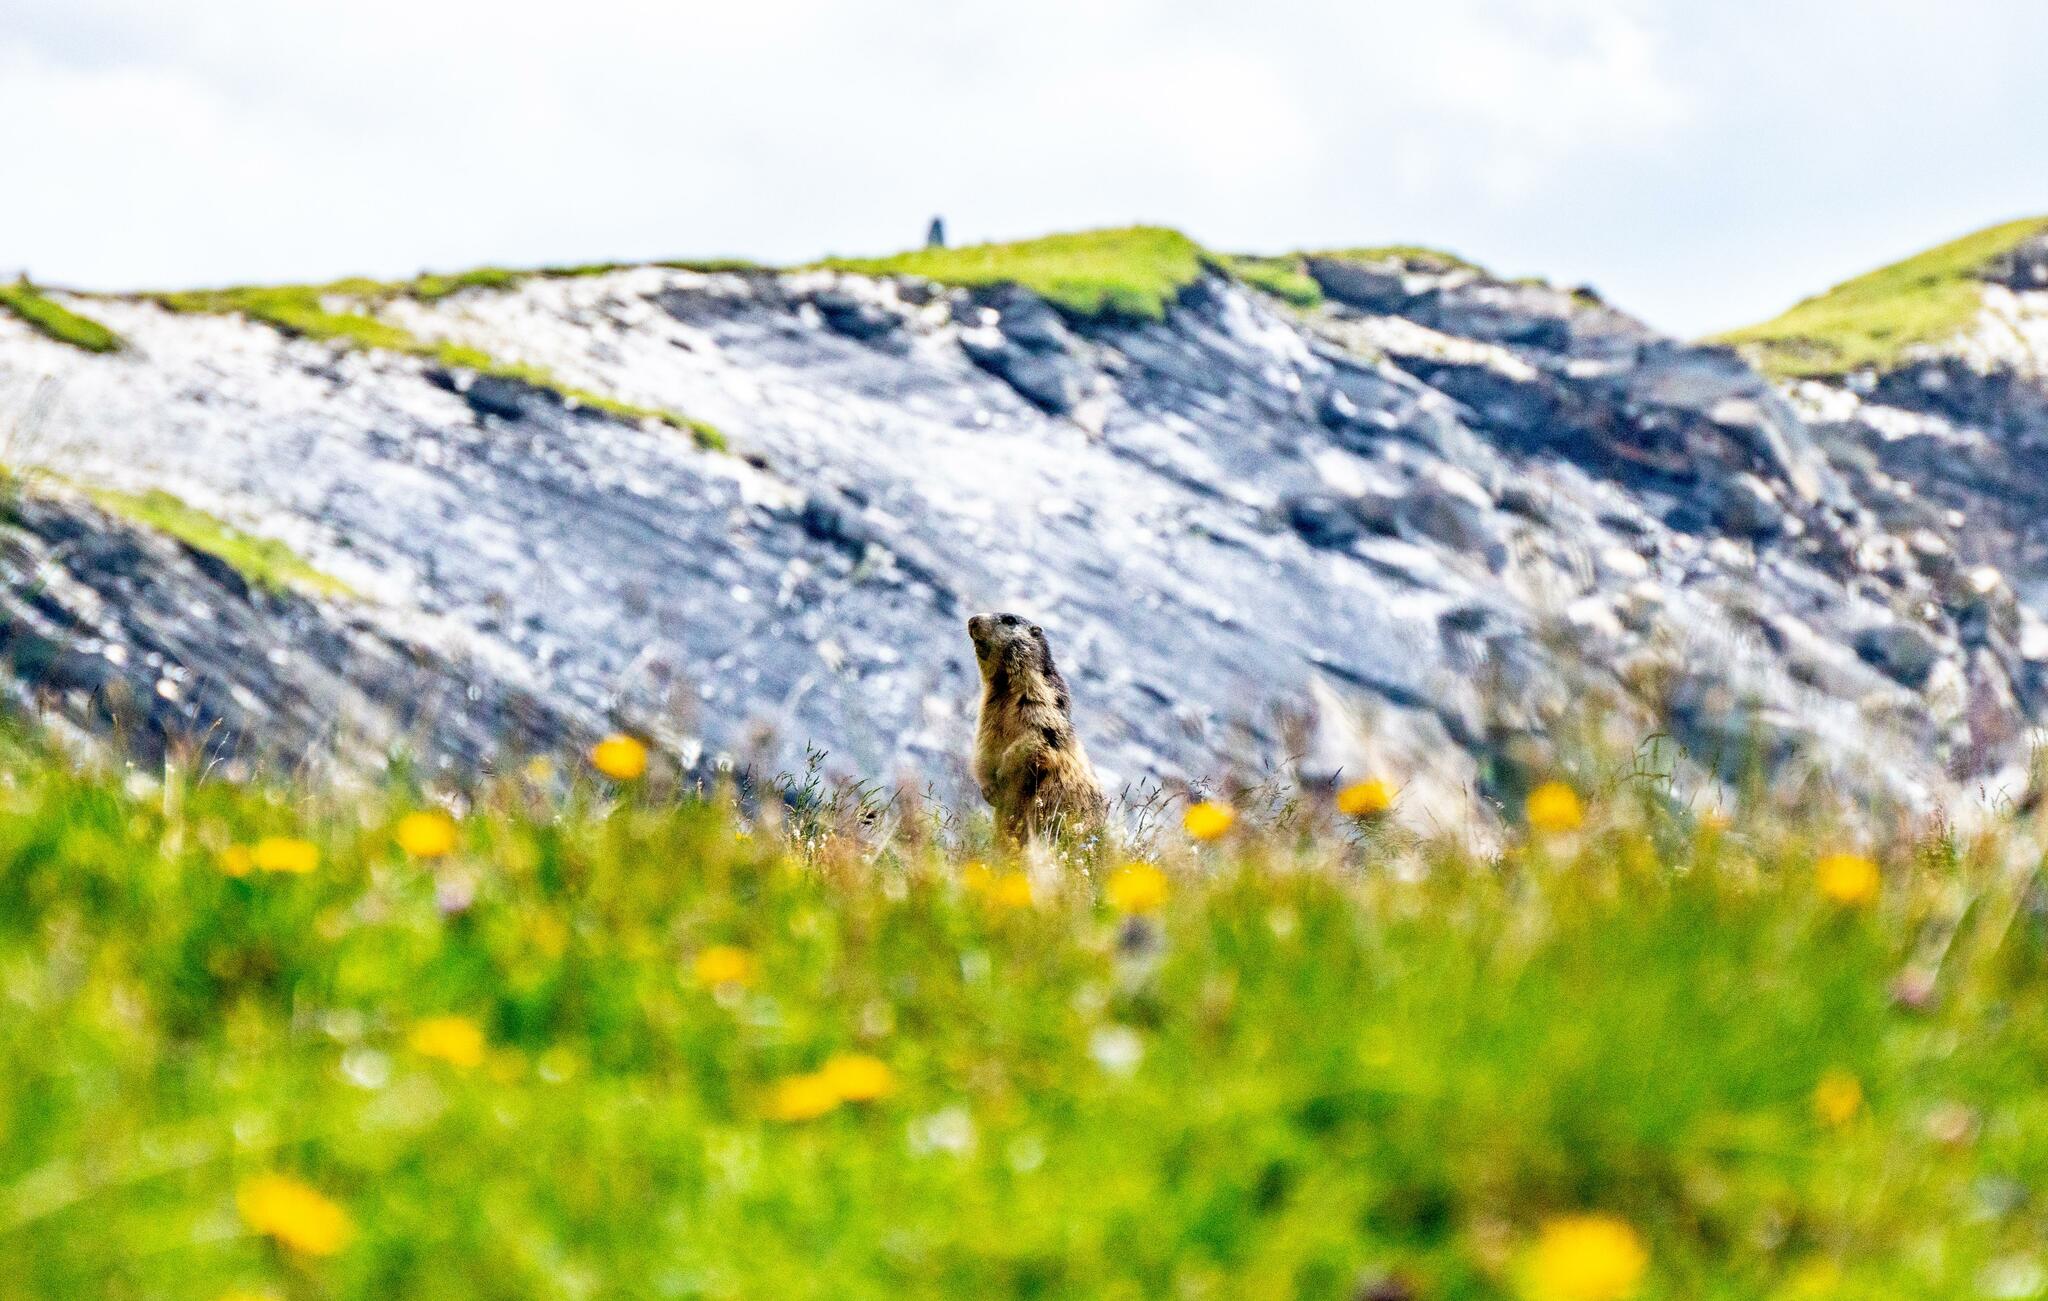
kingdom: Animalia
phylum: Chordata
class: Mammalia
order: Rodentia
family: Sciuridae
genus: Marmota
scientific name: Marmota marmota
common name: Alpine marmot
